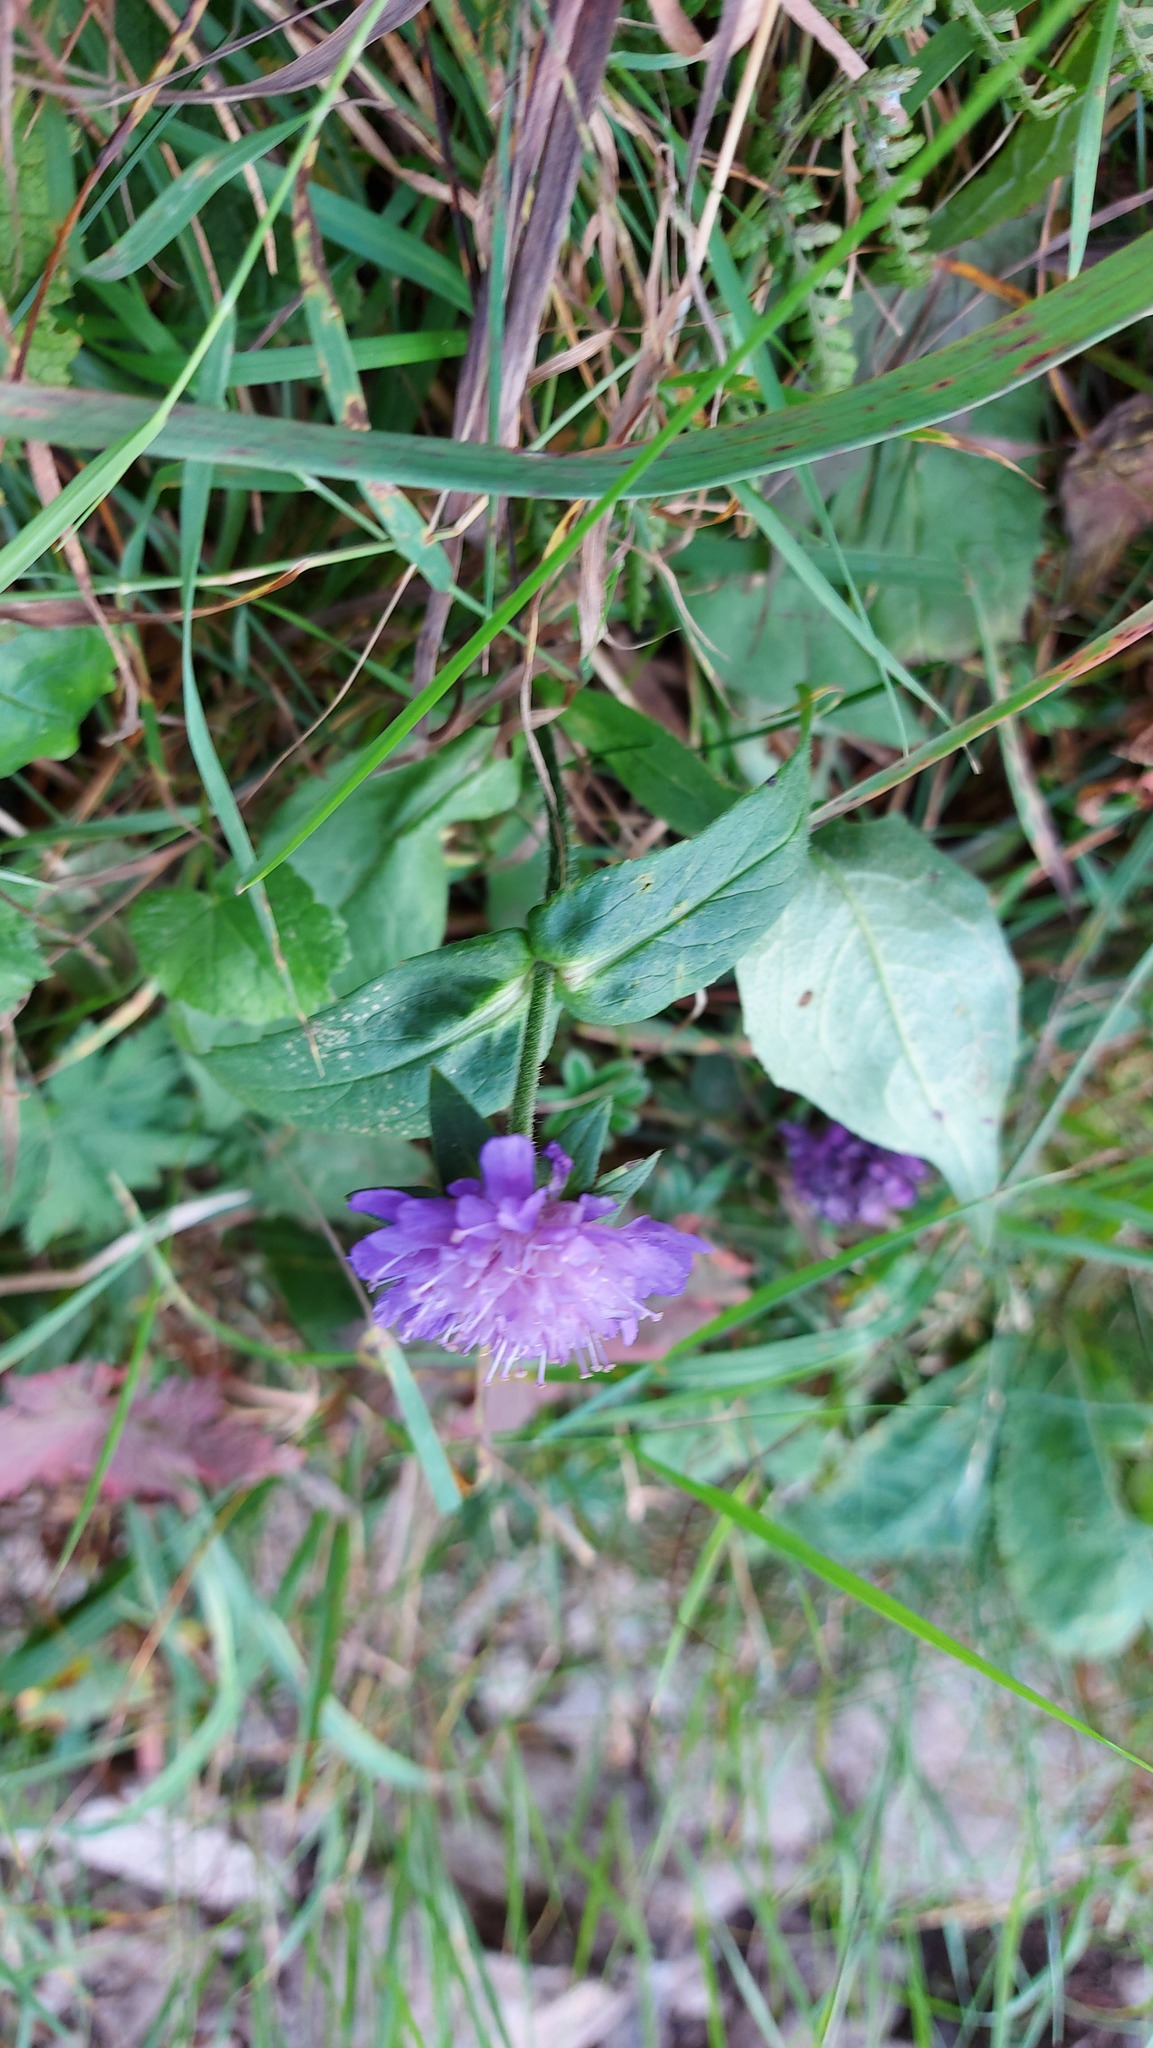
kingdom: Plantae
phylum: Tracheophyta
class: Magnoliopsida
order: Dipsacales
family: Caprifoliaceae
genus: Knautia
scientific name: Knautia dipsacifolia
